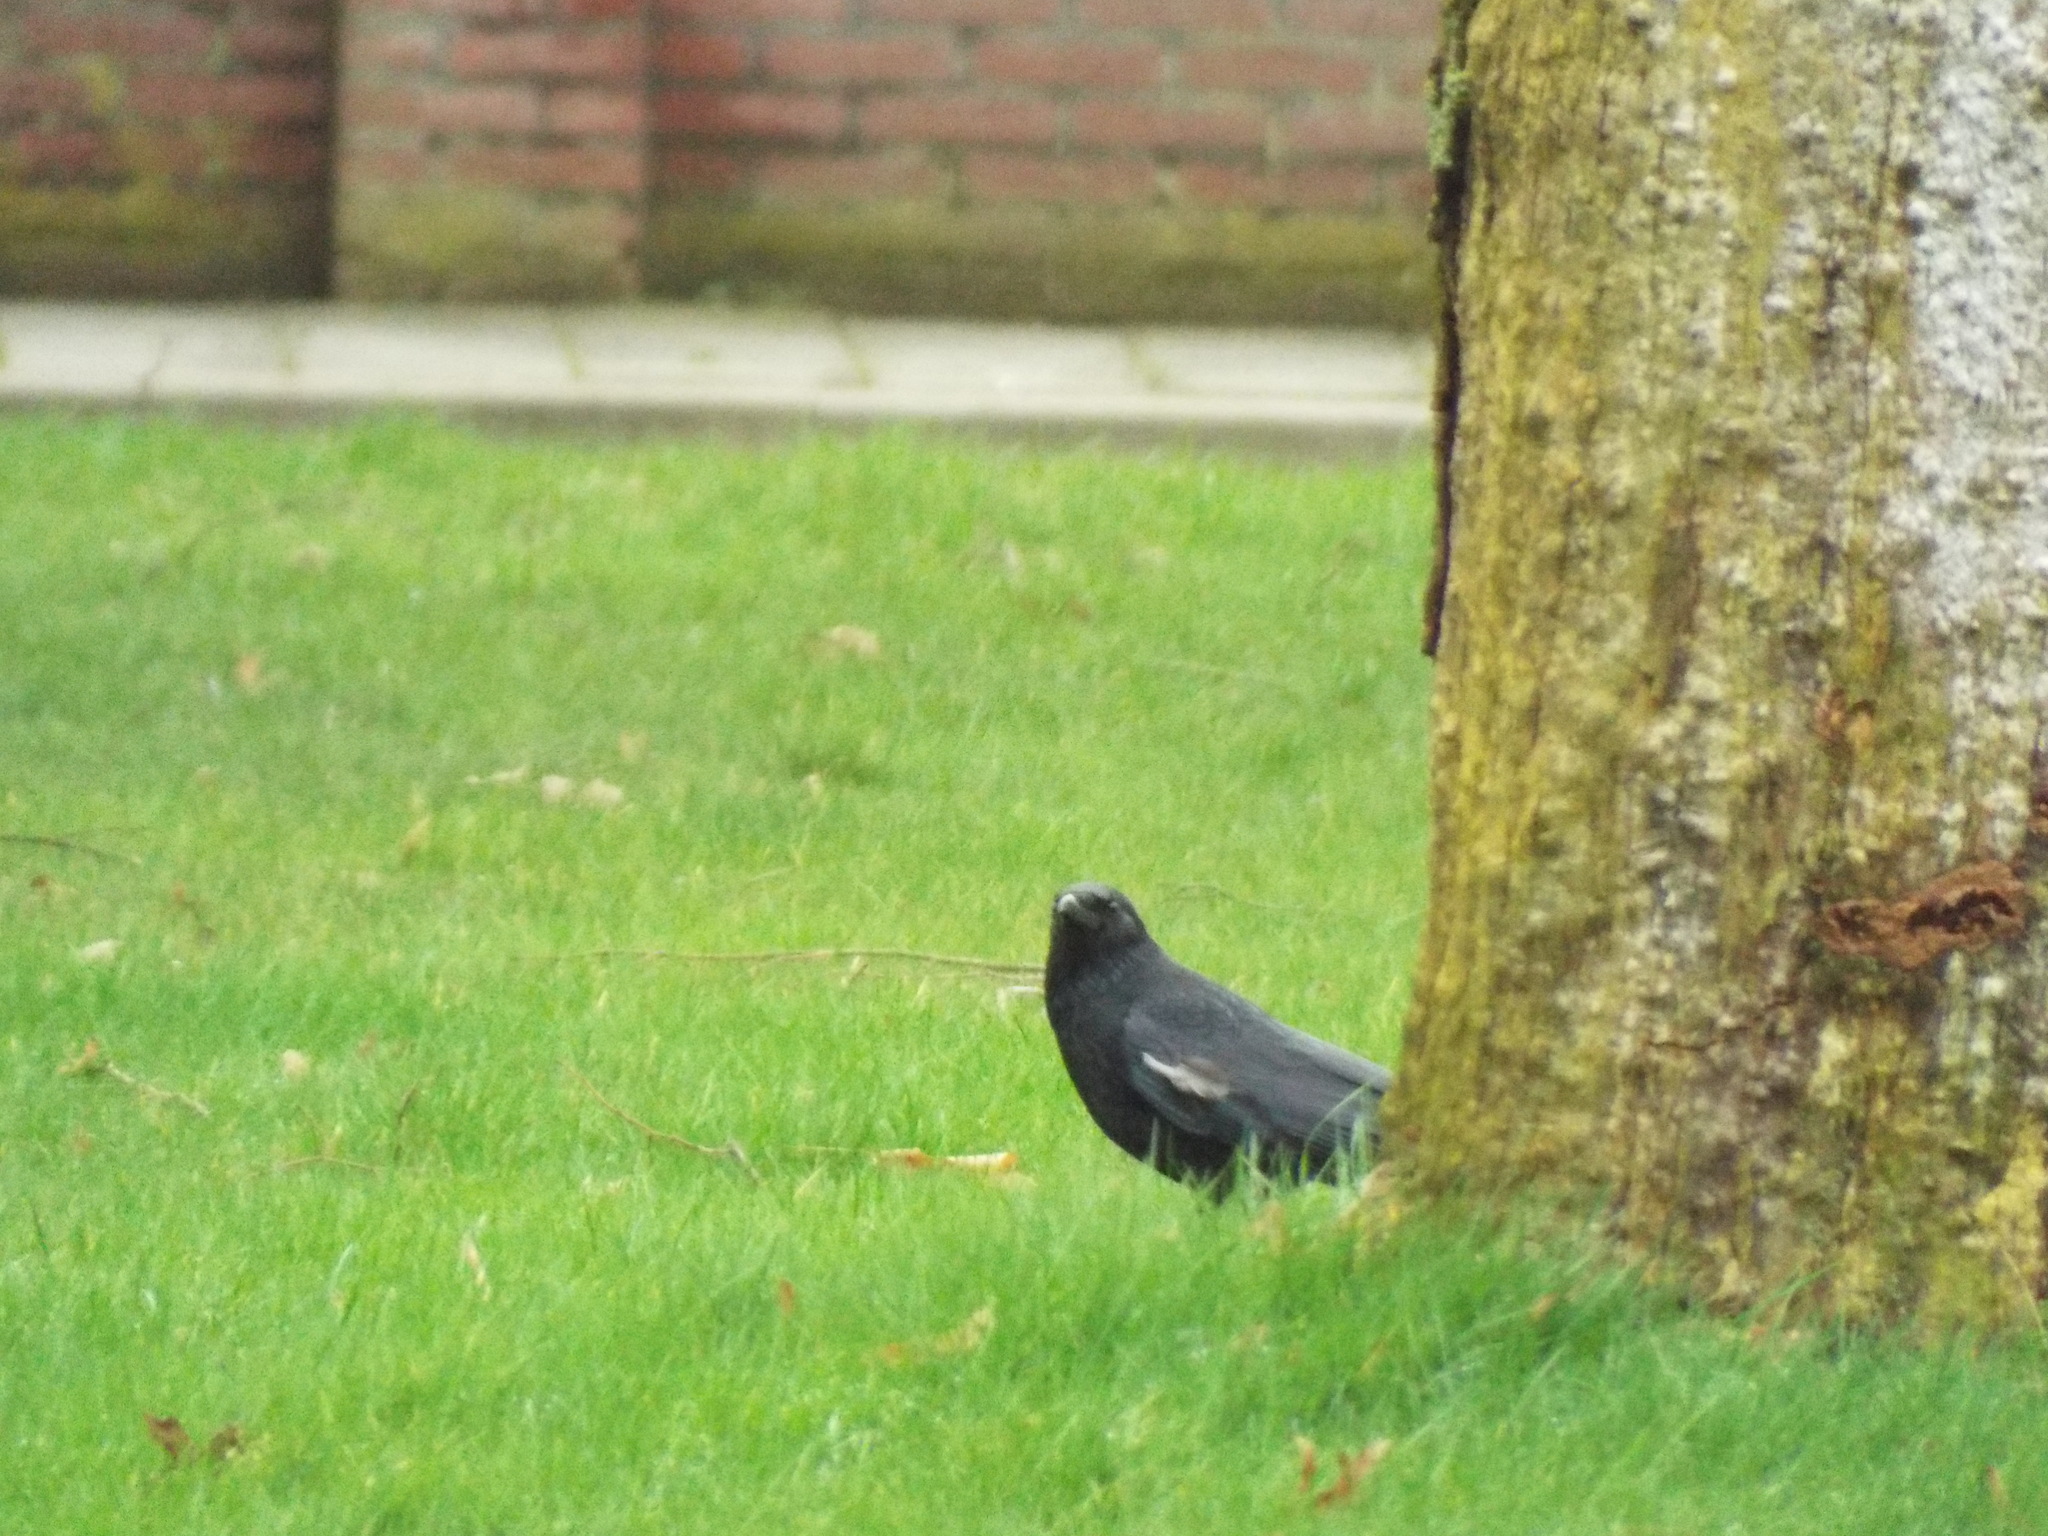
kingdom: Animalia
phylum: Chordata
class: Aves
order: Passeriformes
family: Corvidae
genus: Corvus
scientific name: Corvus corone
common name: Carrion crow
